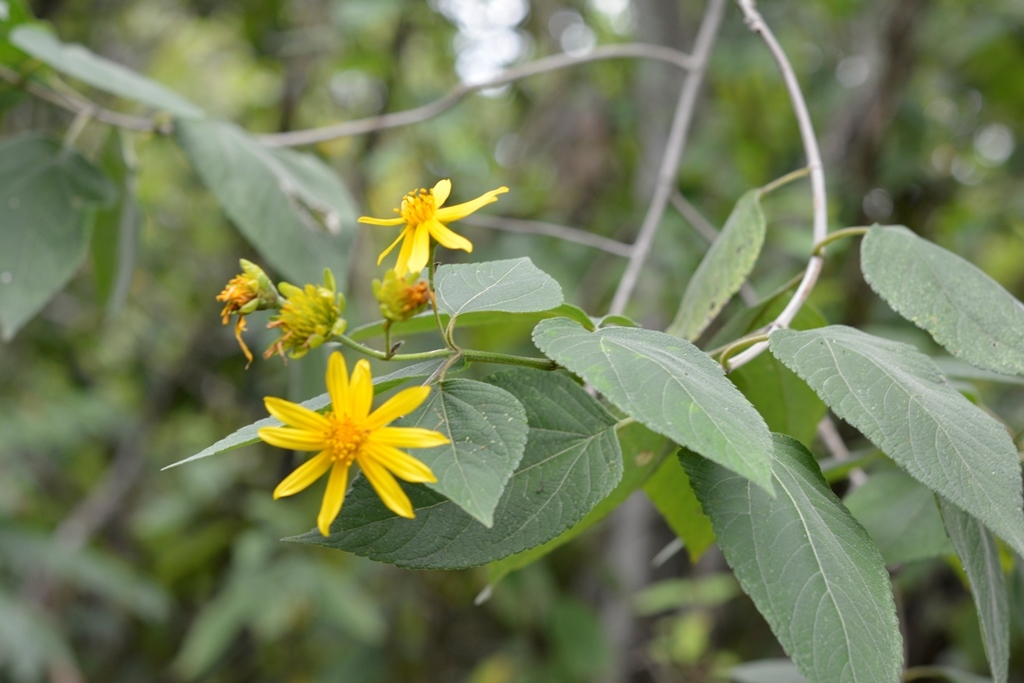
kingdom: Plantae
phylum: Tracheophyta
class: Magnoliopsida
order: Asterales
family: Asteraceae
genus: Lasianthaea
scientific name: Lasianthaea fruticosa
